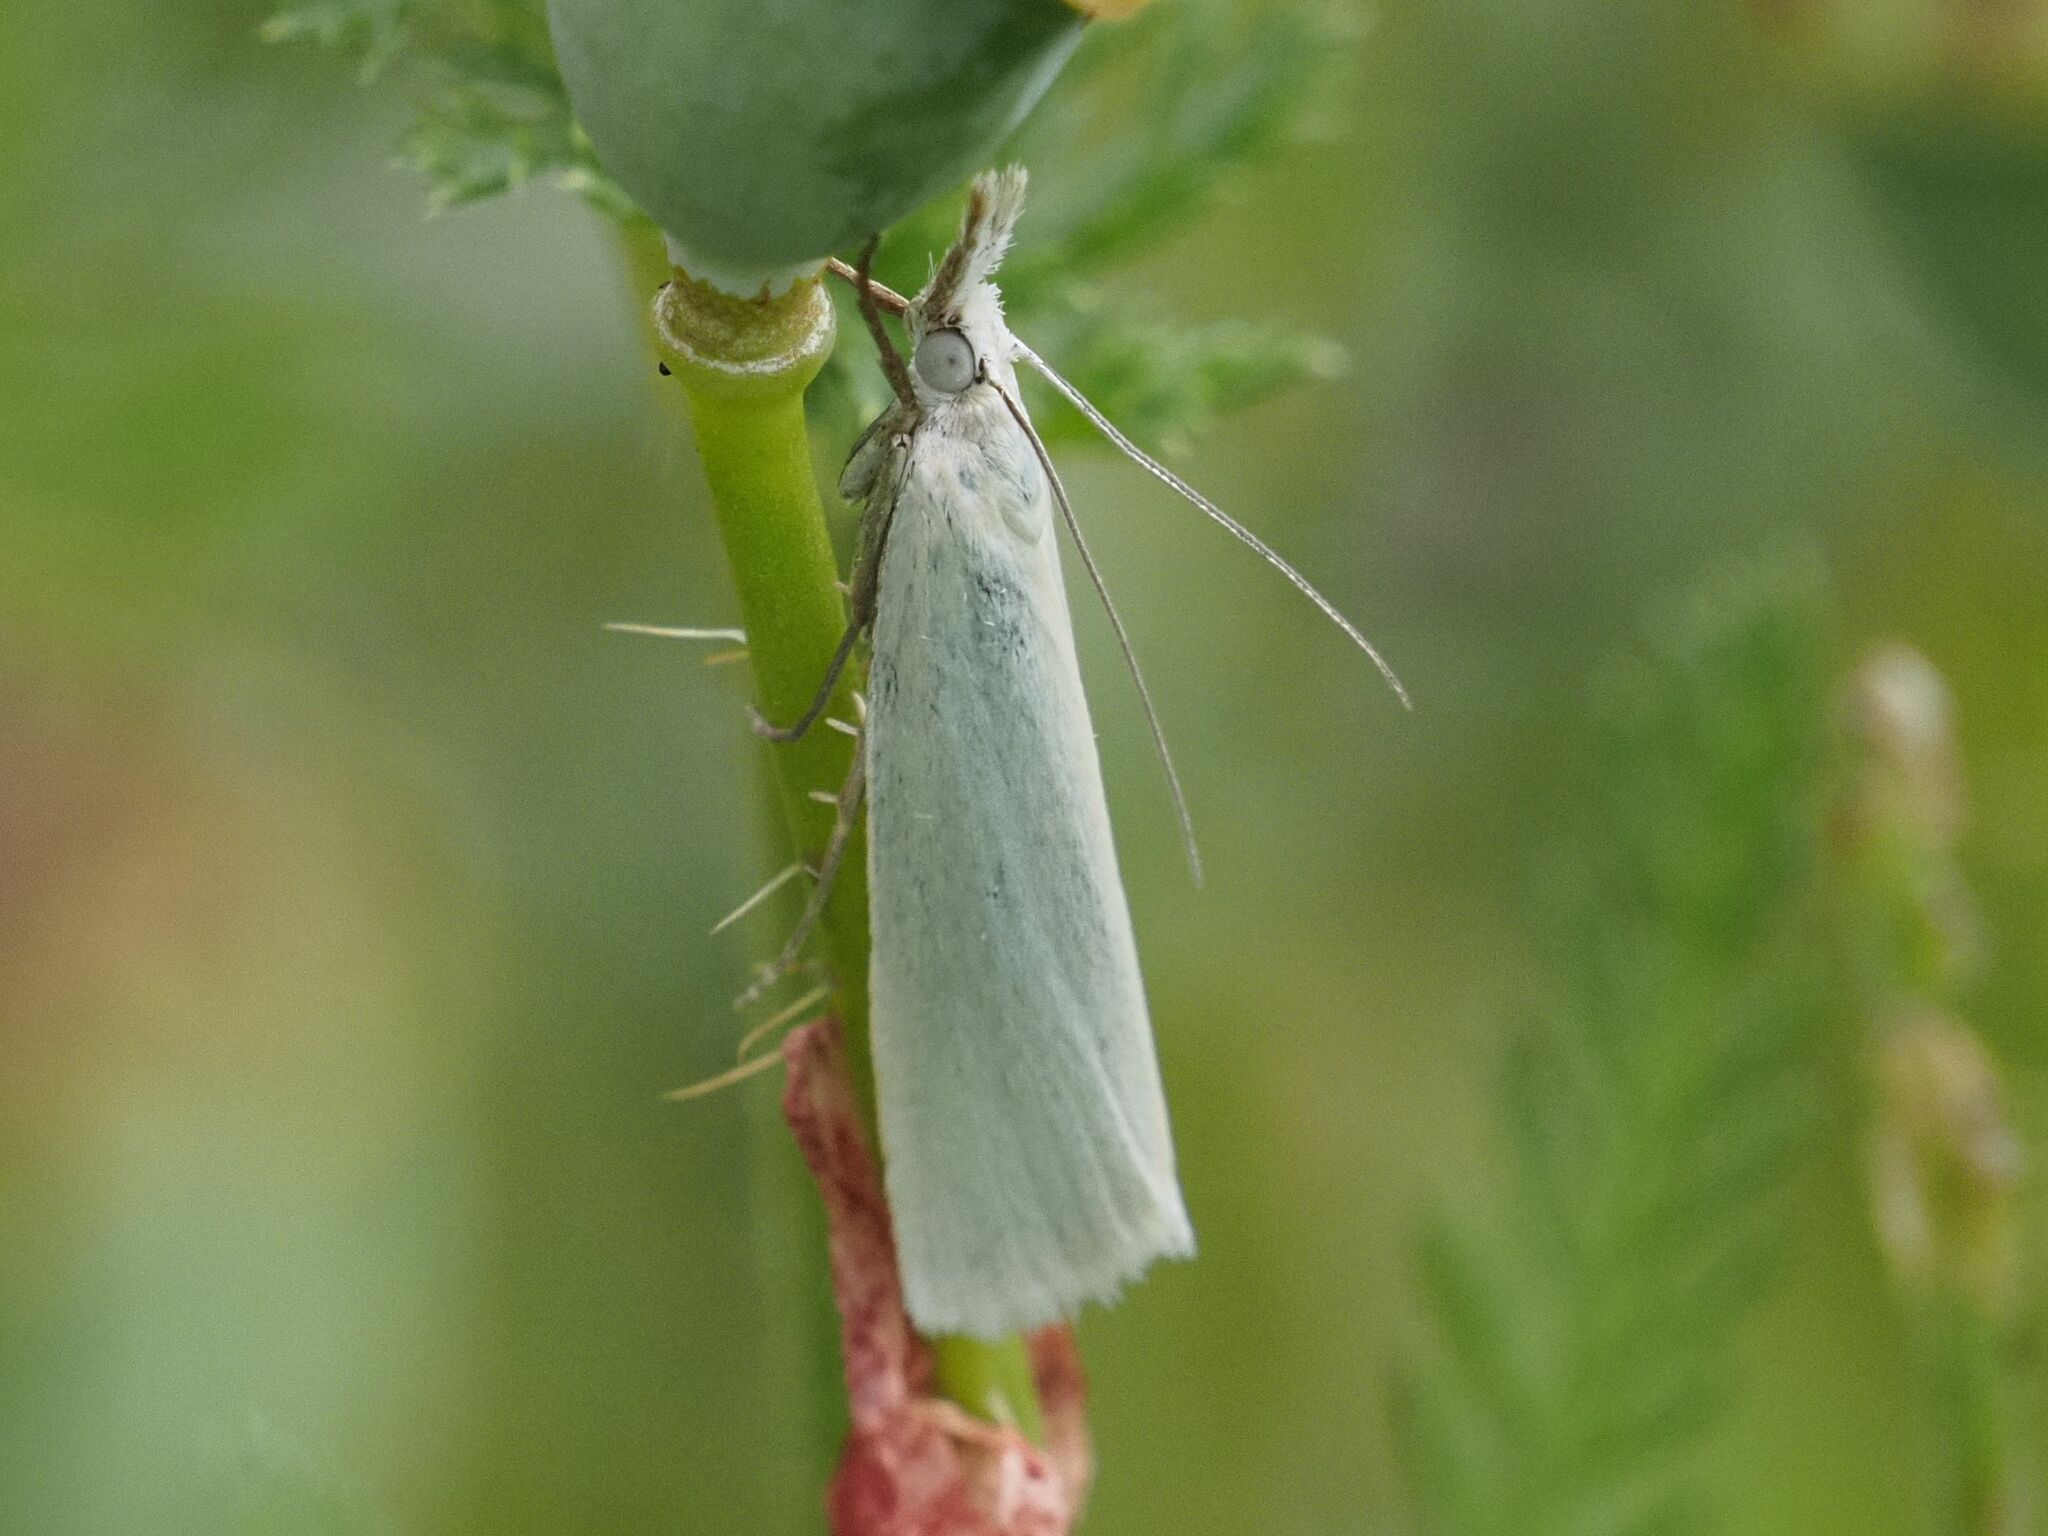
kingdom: Animalia
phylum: Arthropoda
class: Insecta
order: Lepidoptera
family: Crambidae
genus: Crambus
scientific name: Crambus perlellus
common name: Yellow satin veneer
